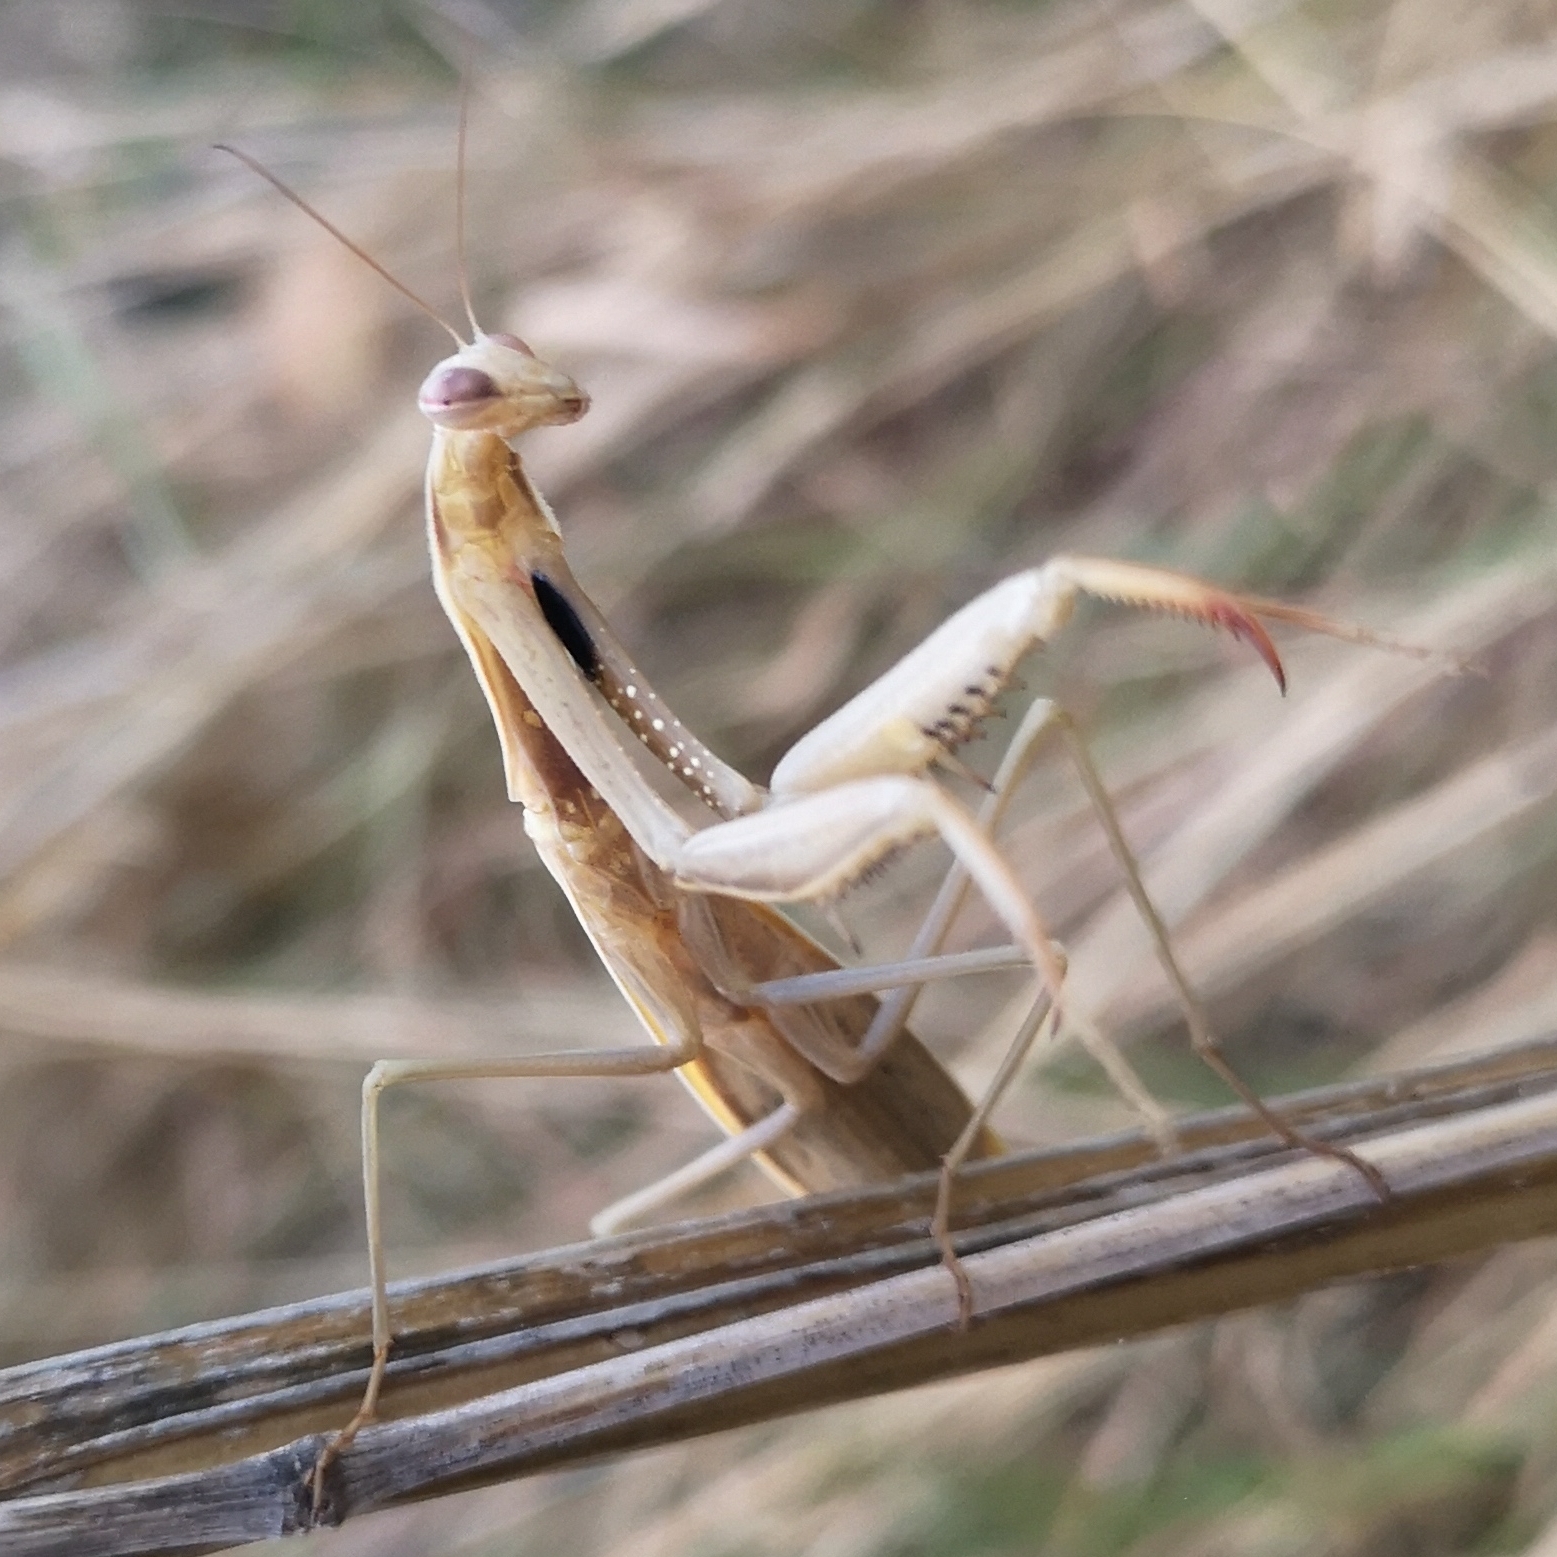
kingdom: Animalia
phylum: Arthropoda
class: Insecta
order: Mantodea
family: Mantidae
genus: Mantis
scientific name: Mantis religiosa
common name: Praying mantis
